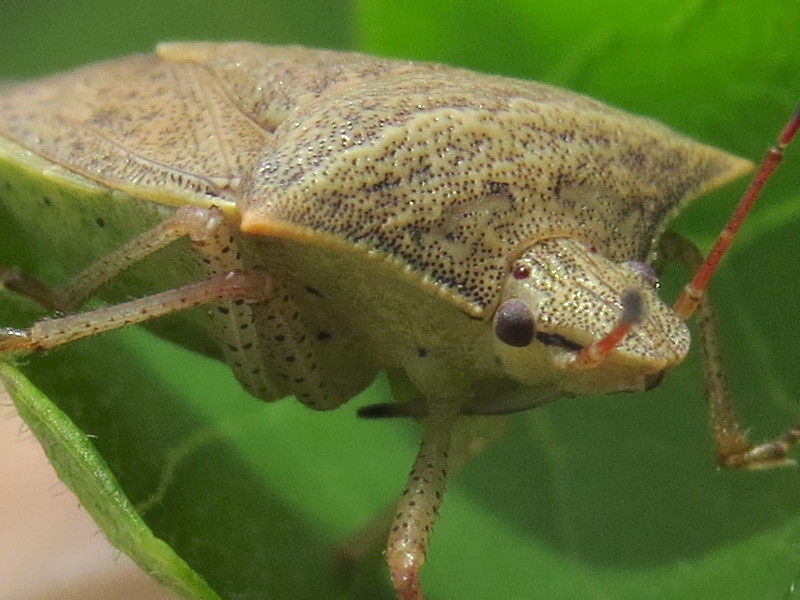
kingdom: Animalia
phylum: Arthropoda
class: Insecta
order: Hemiptera
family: Pentatomidae
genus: Euschistus
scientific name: Euschistus ictericus
